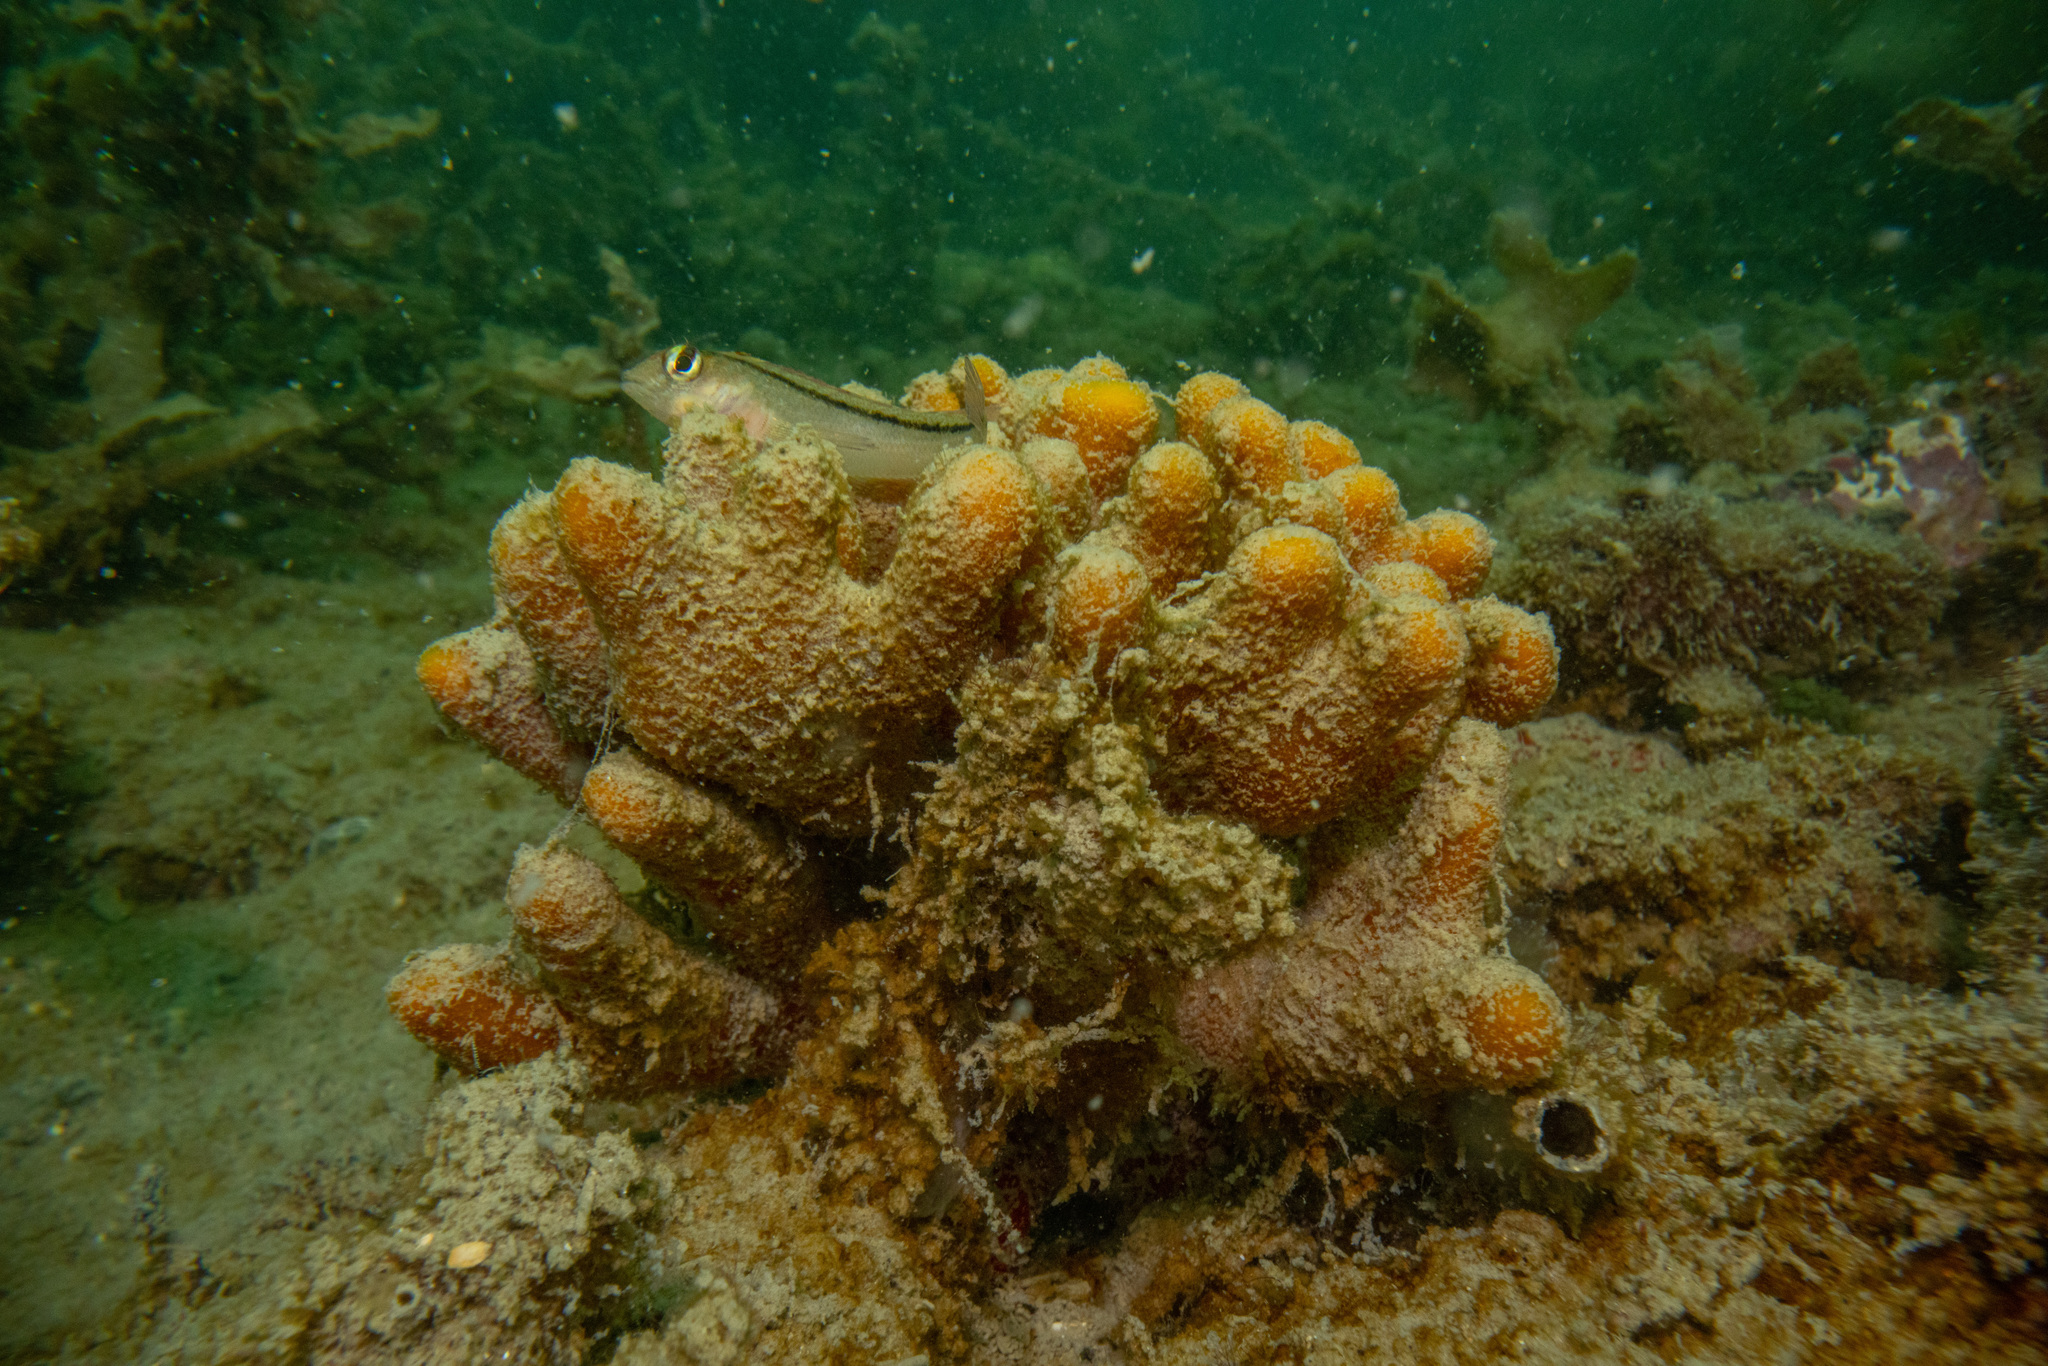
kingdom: Animalia
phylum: Porifera
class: Demospongiae
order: Axinellida
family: Raspailiidae
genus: Raspailia
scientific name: Raspailia topsenti
